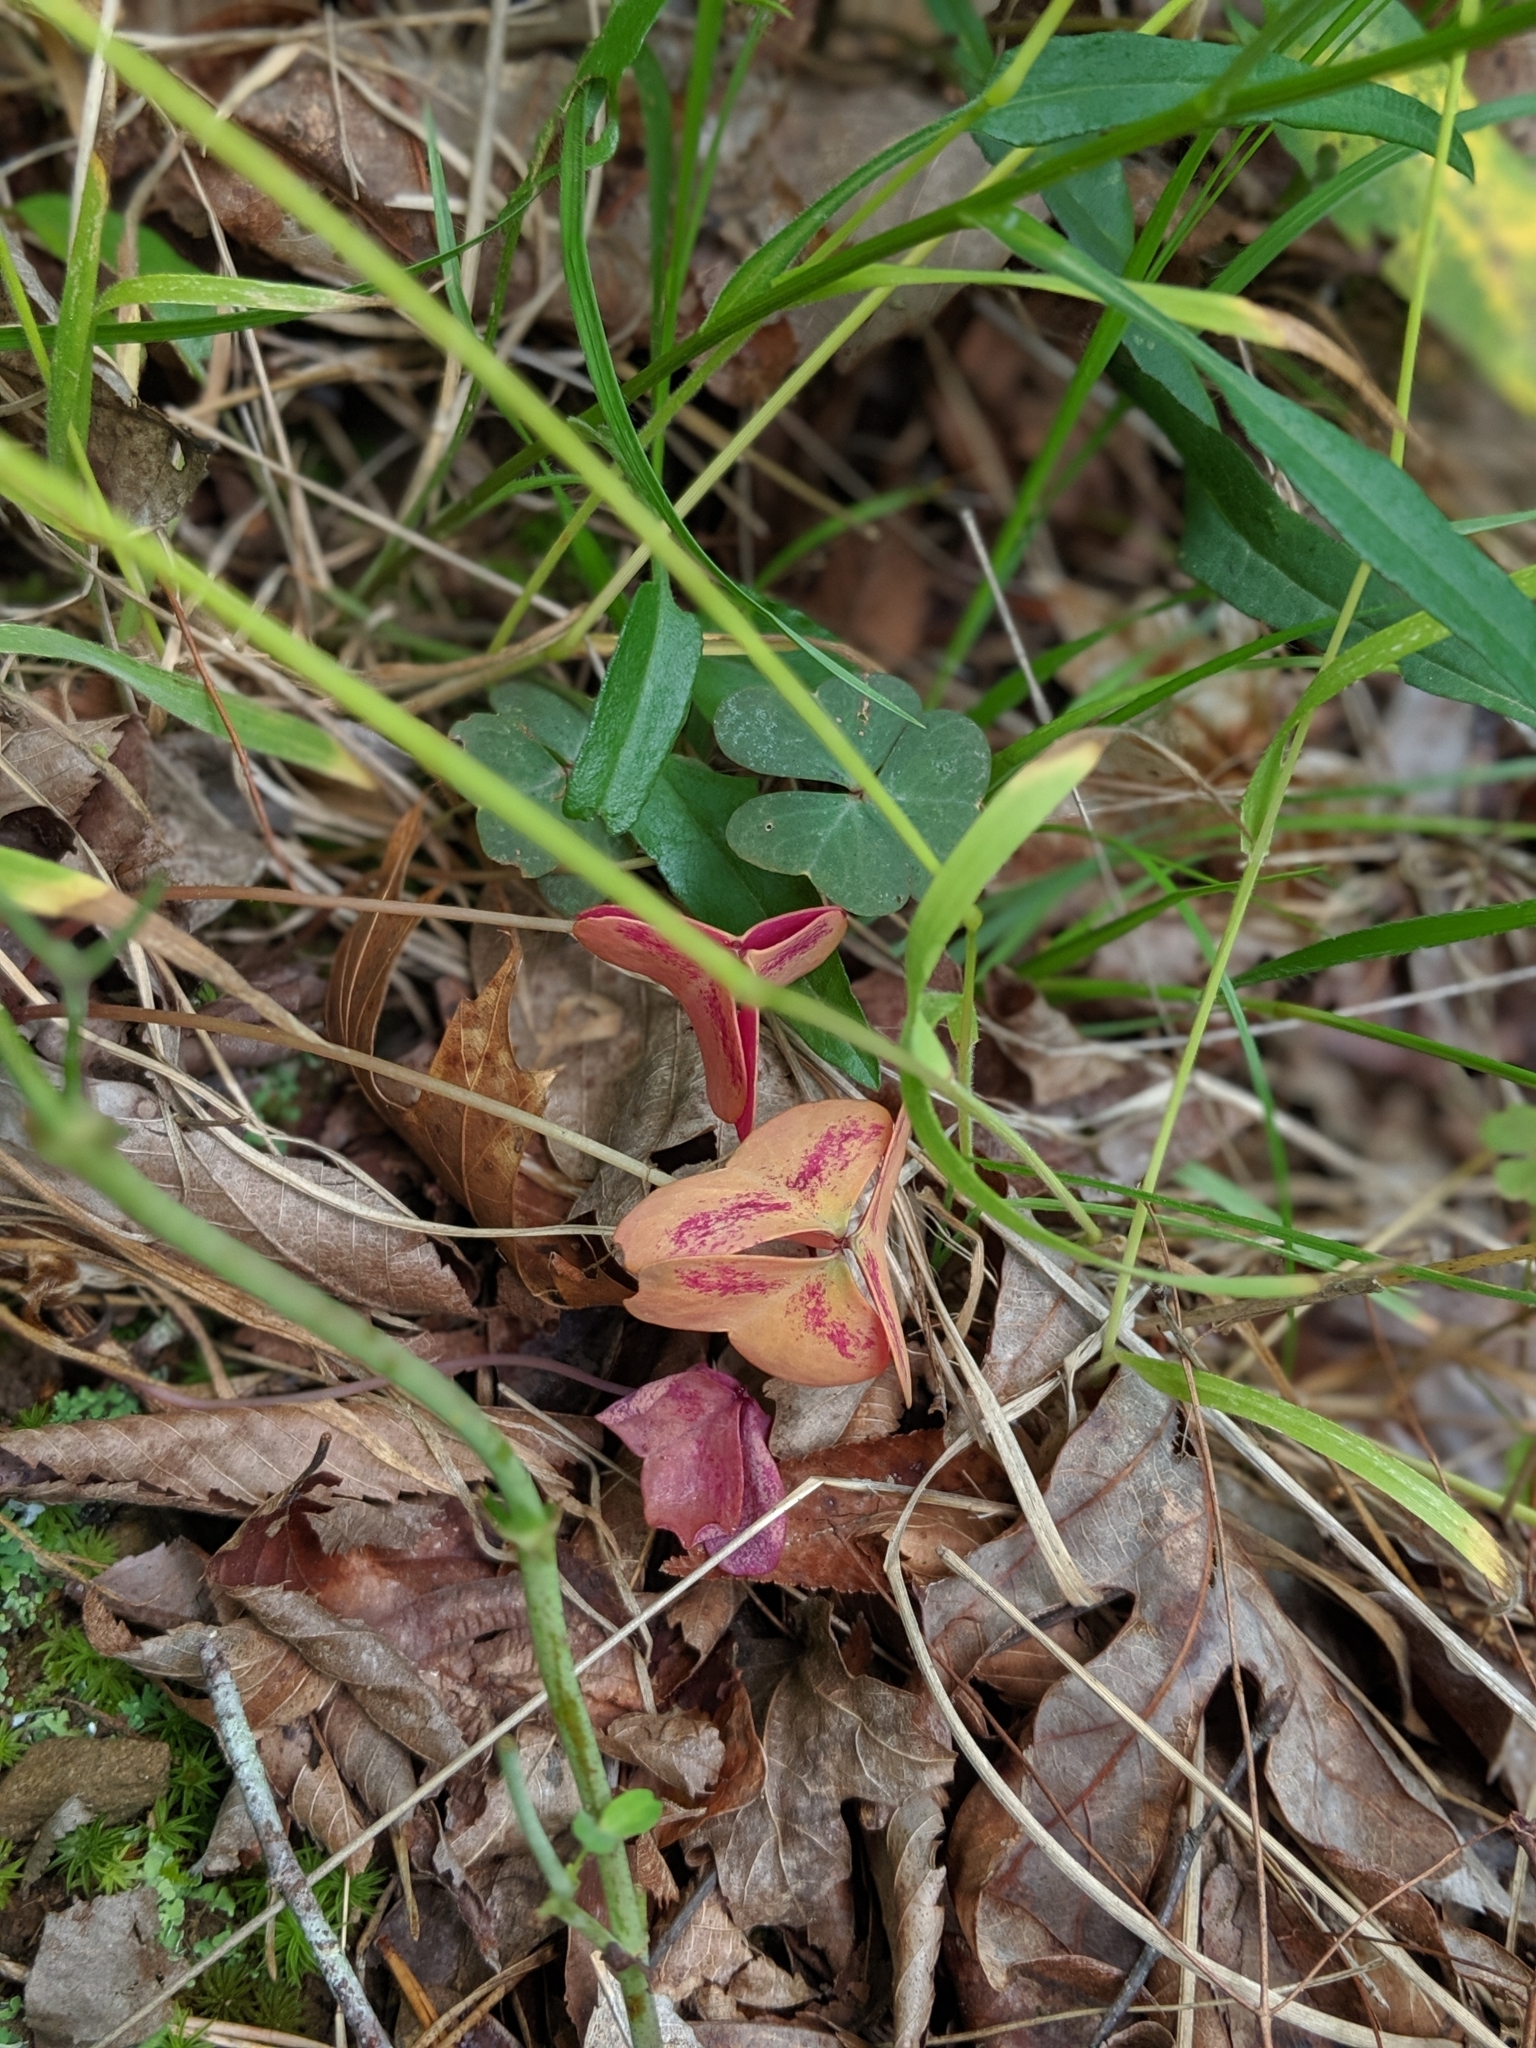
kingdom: Plantae
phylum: Tracheophyta
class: Magnoliopsida
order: Oxalidales
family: Oxalidaceae
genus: Oxalis
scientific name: Oxalis violacea
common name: Violet wood-sorrel
